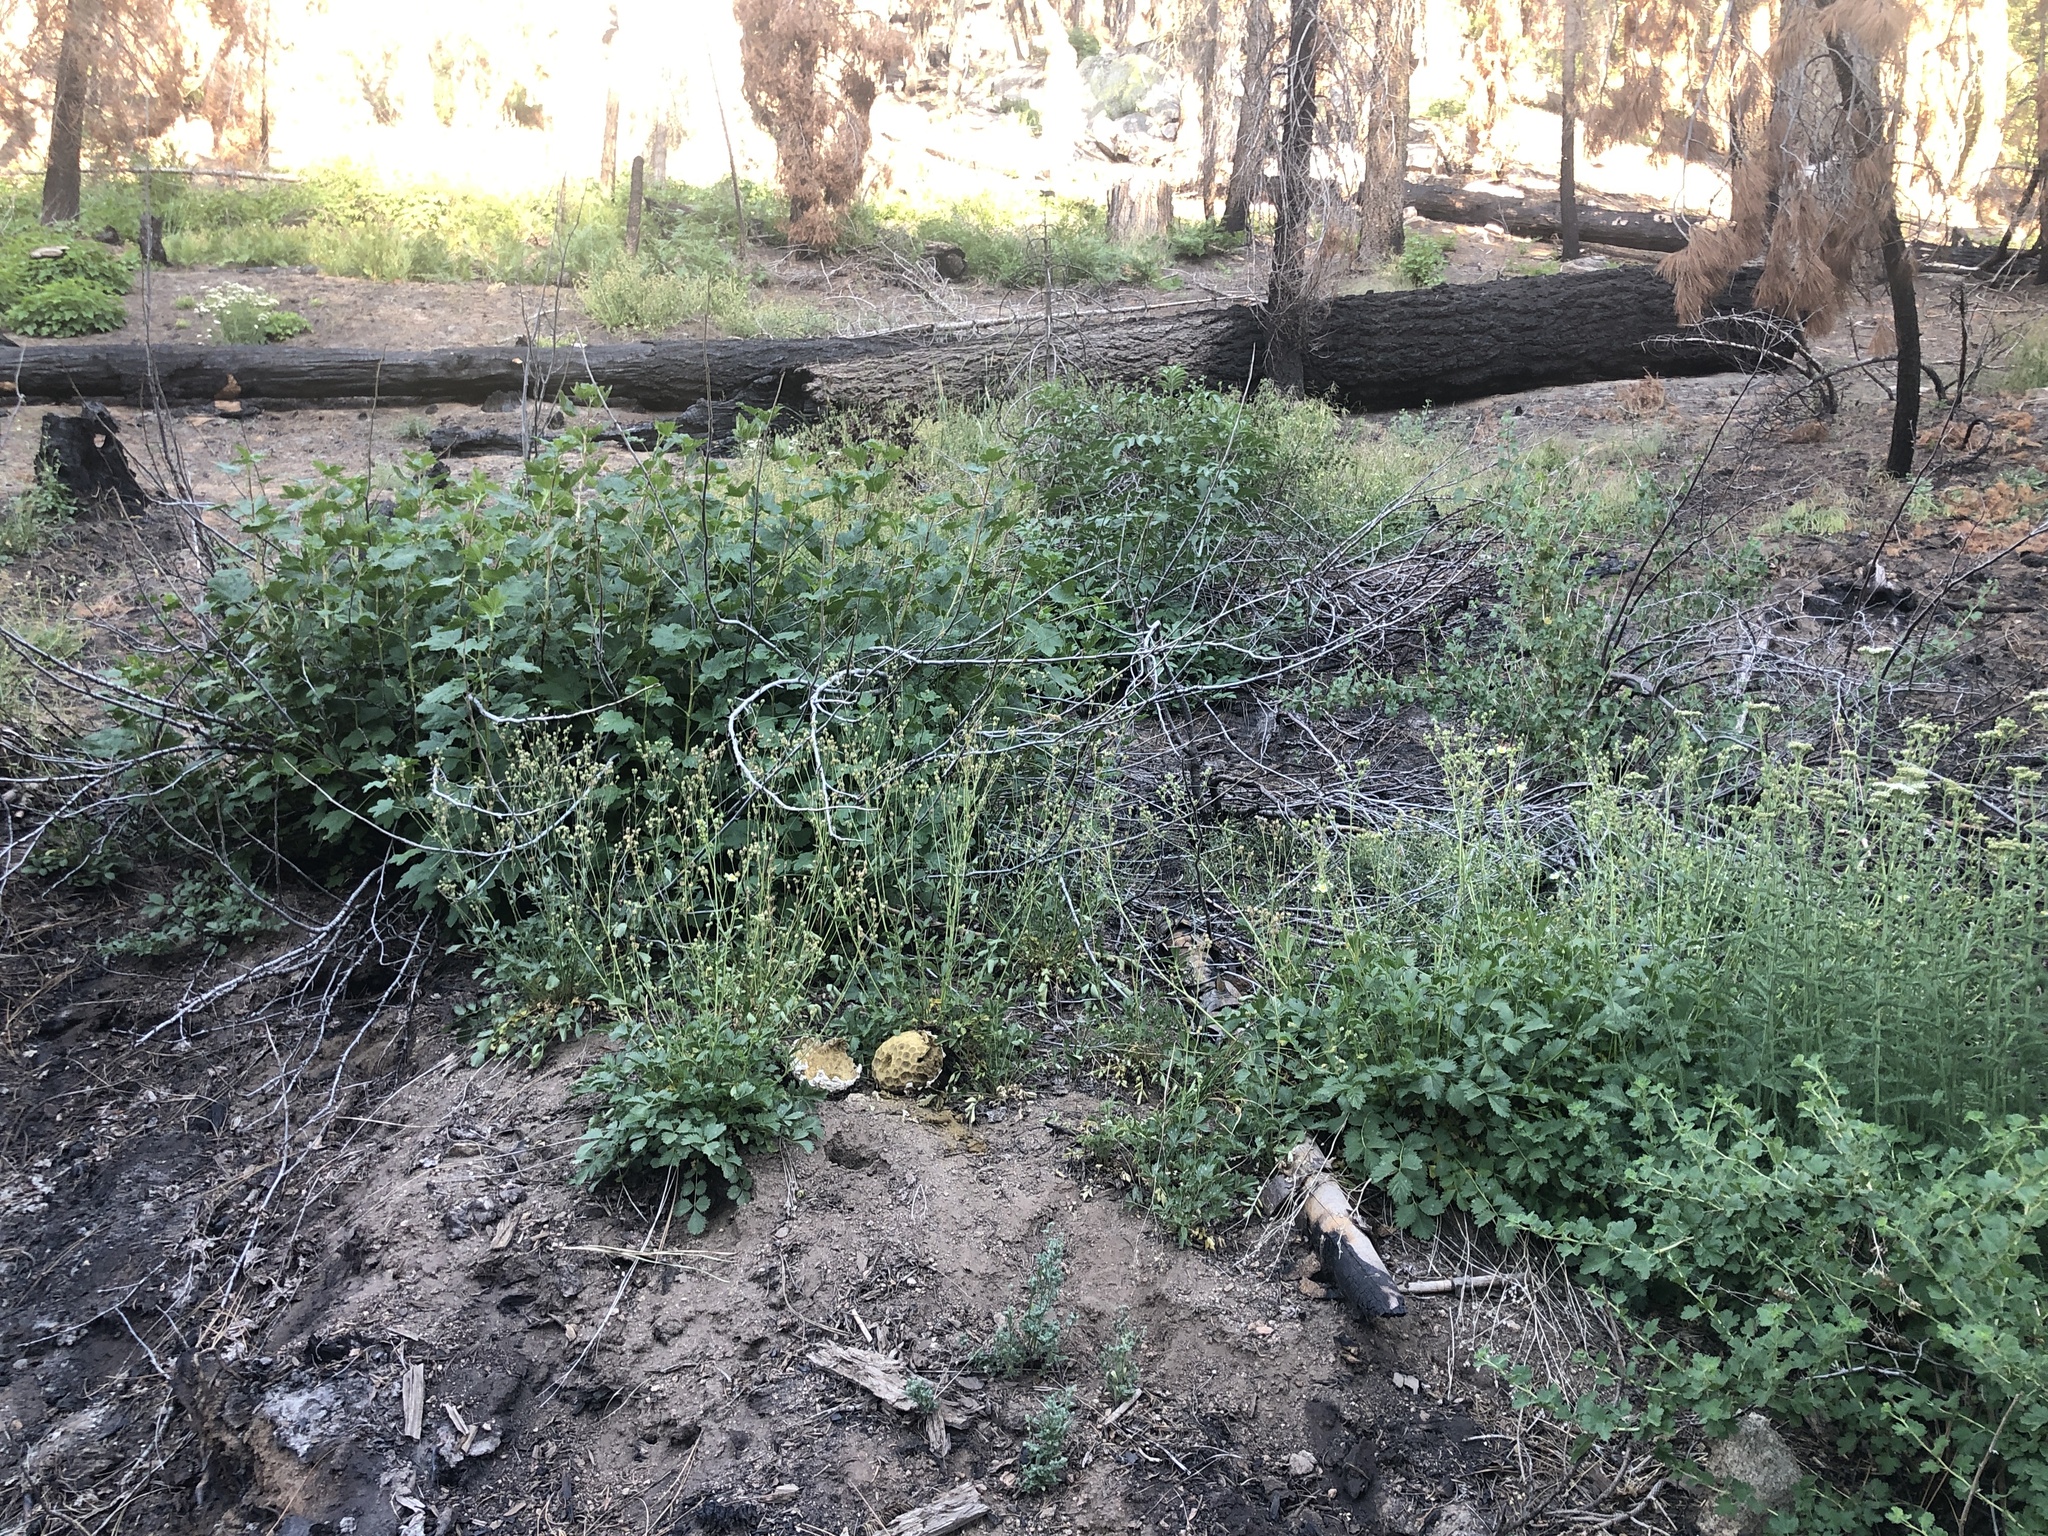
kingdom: Fungi
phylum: Basidiomycota
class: Agaricomycetes
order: Agaricales
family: Lycoperdaceae
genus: Calvatia
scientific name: Calvatia sculpta
